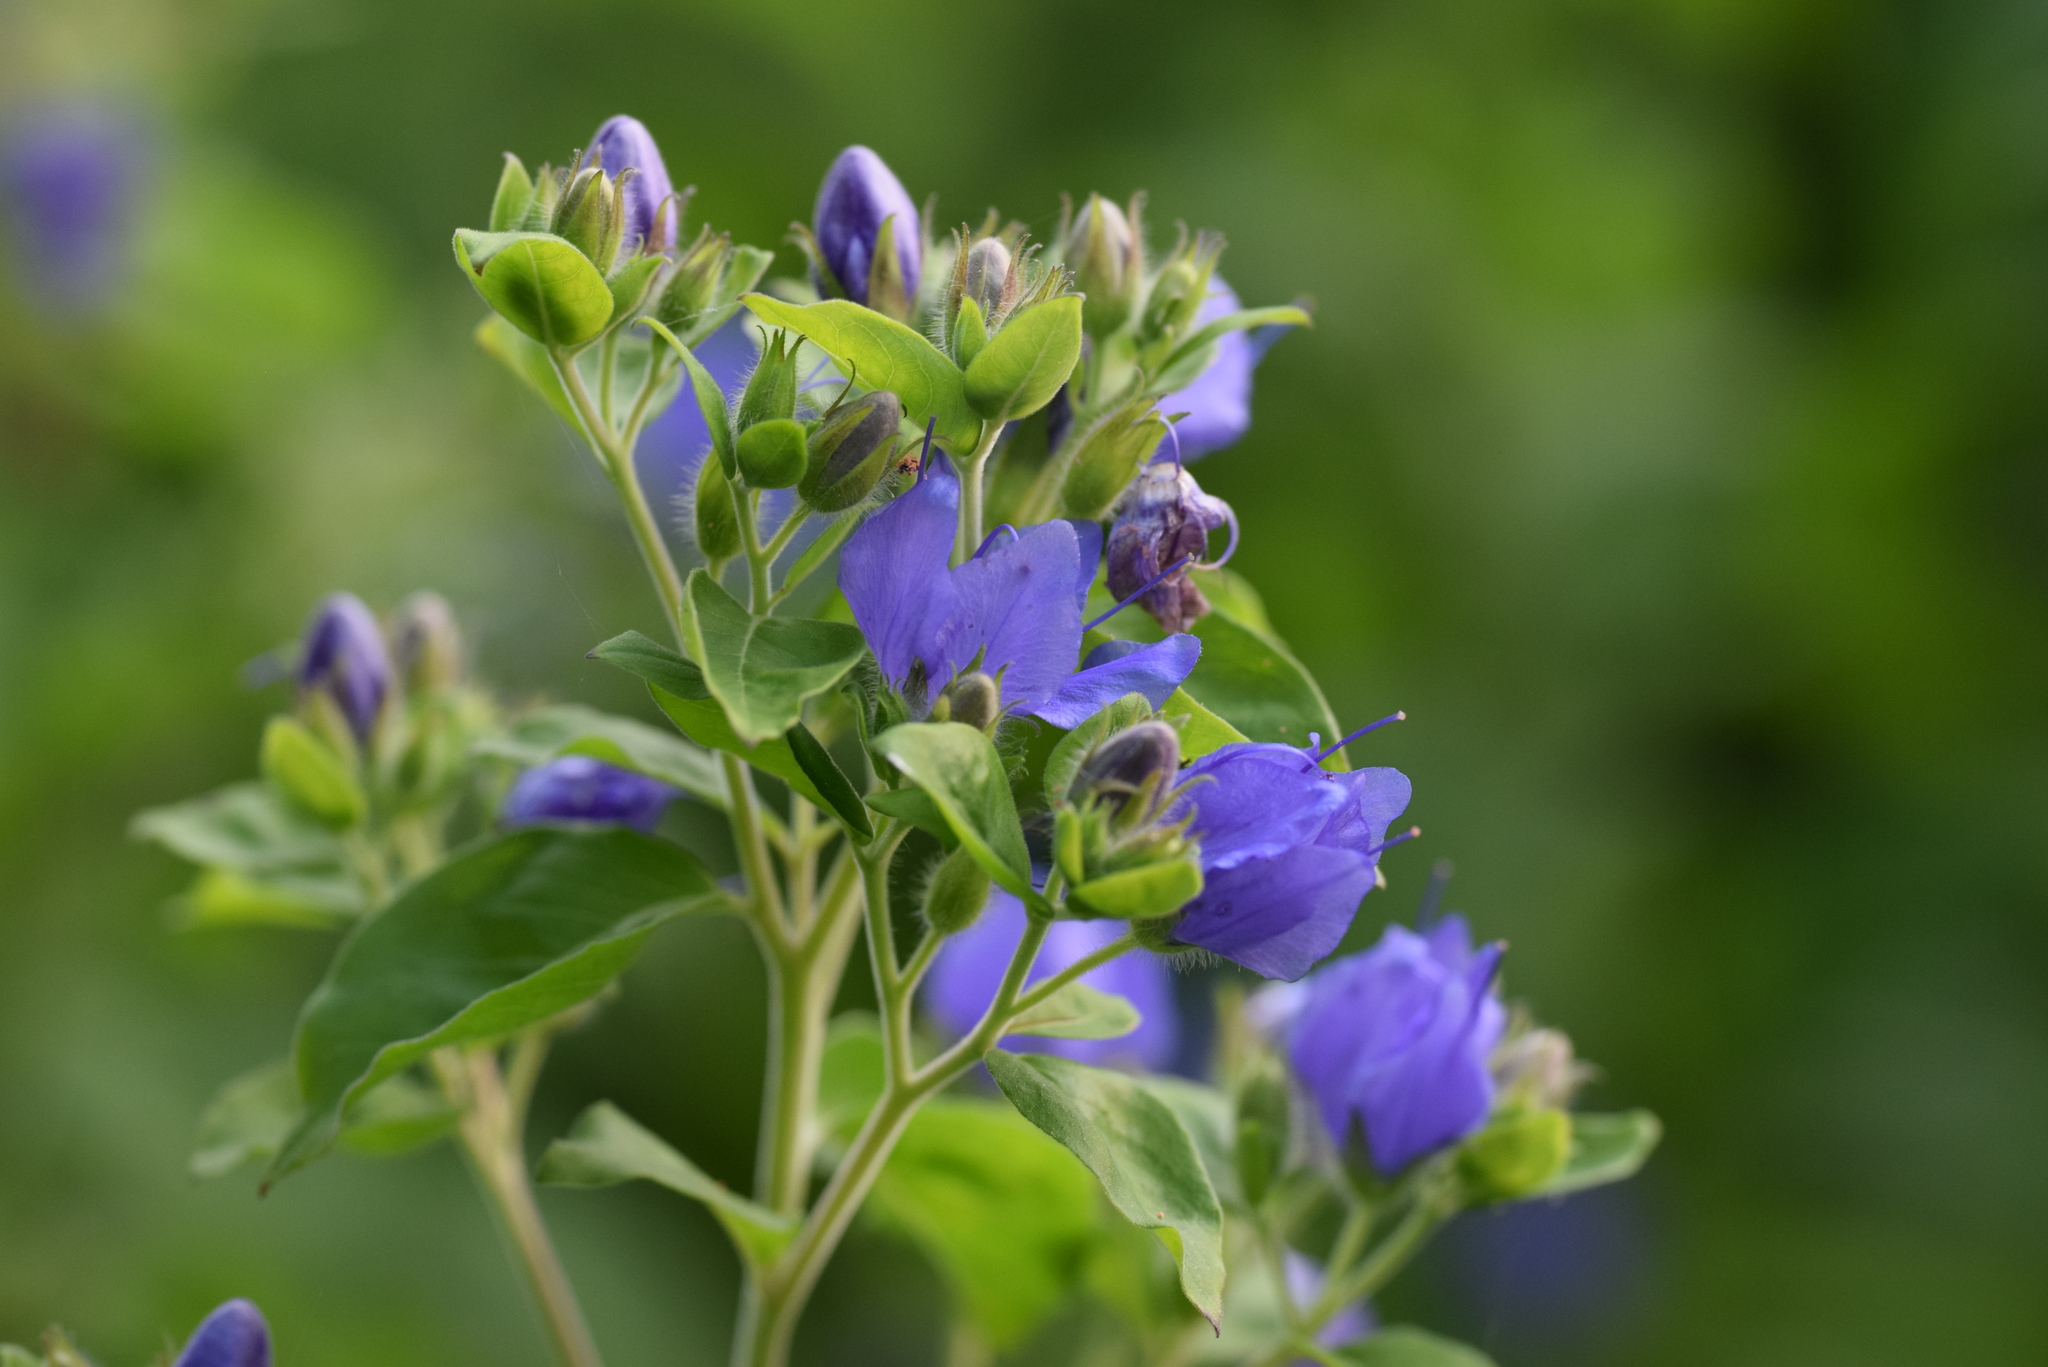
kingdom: Plantae
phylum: Tracheophyta
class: Magnoliopsida
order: Solanales
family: Hydroleaceae
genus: Hydrolea
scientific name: Hydrolea ovata
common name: Ovate false fiddleleaf
